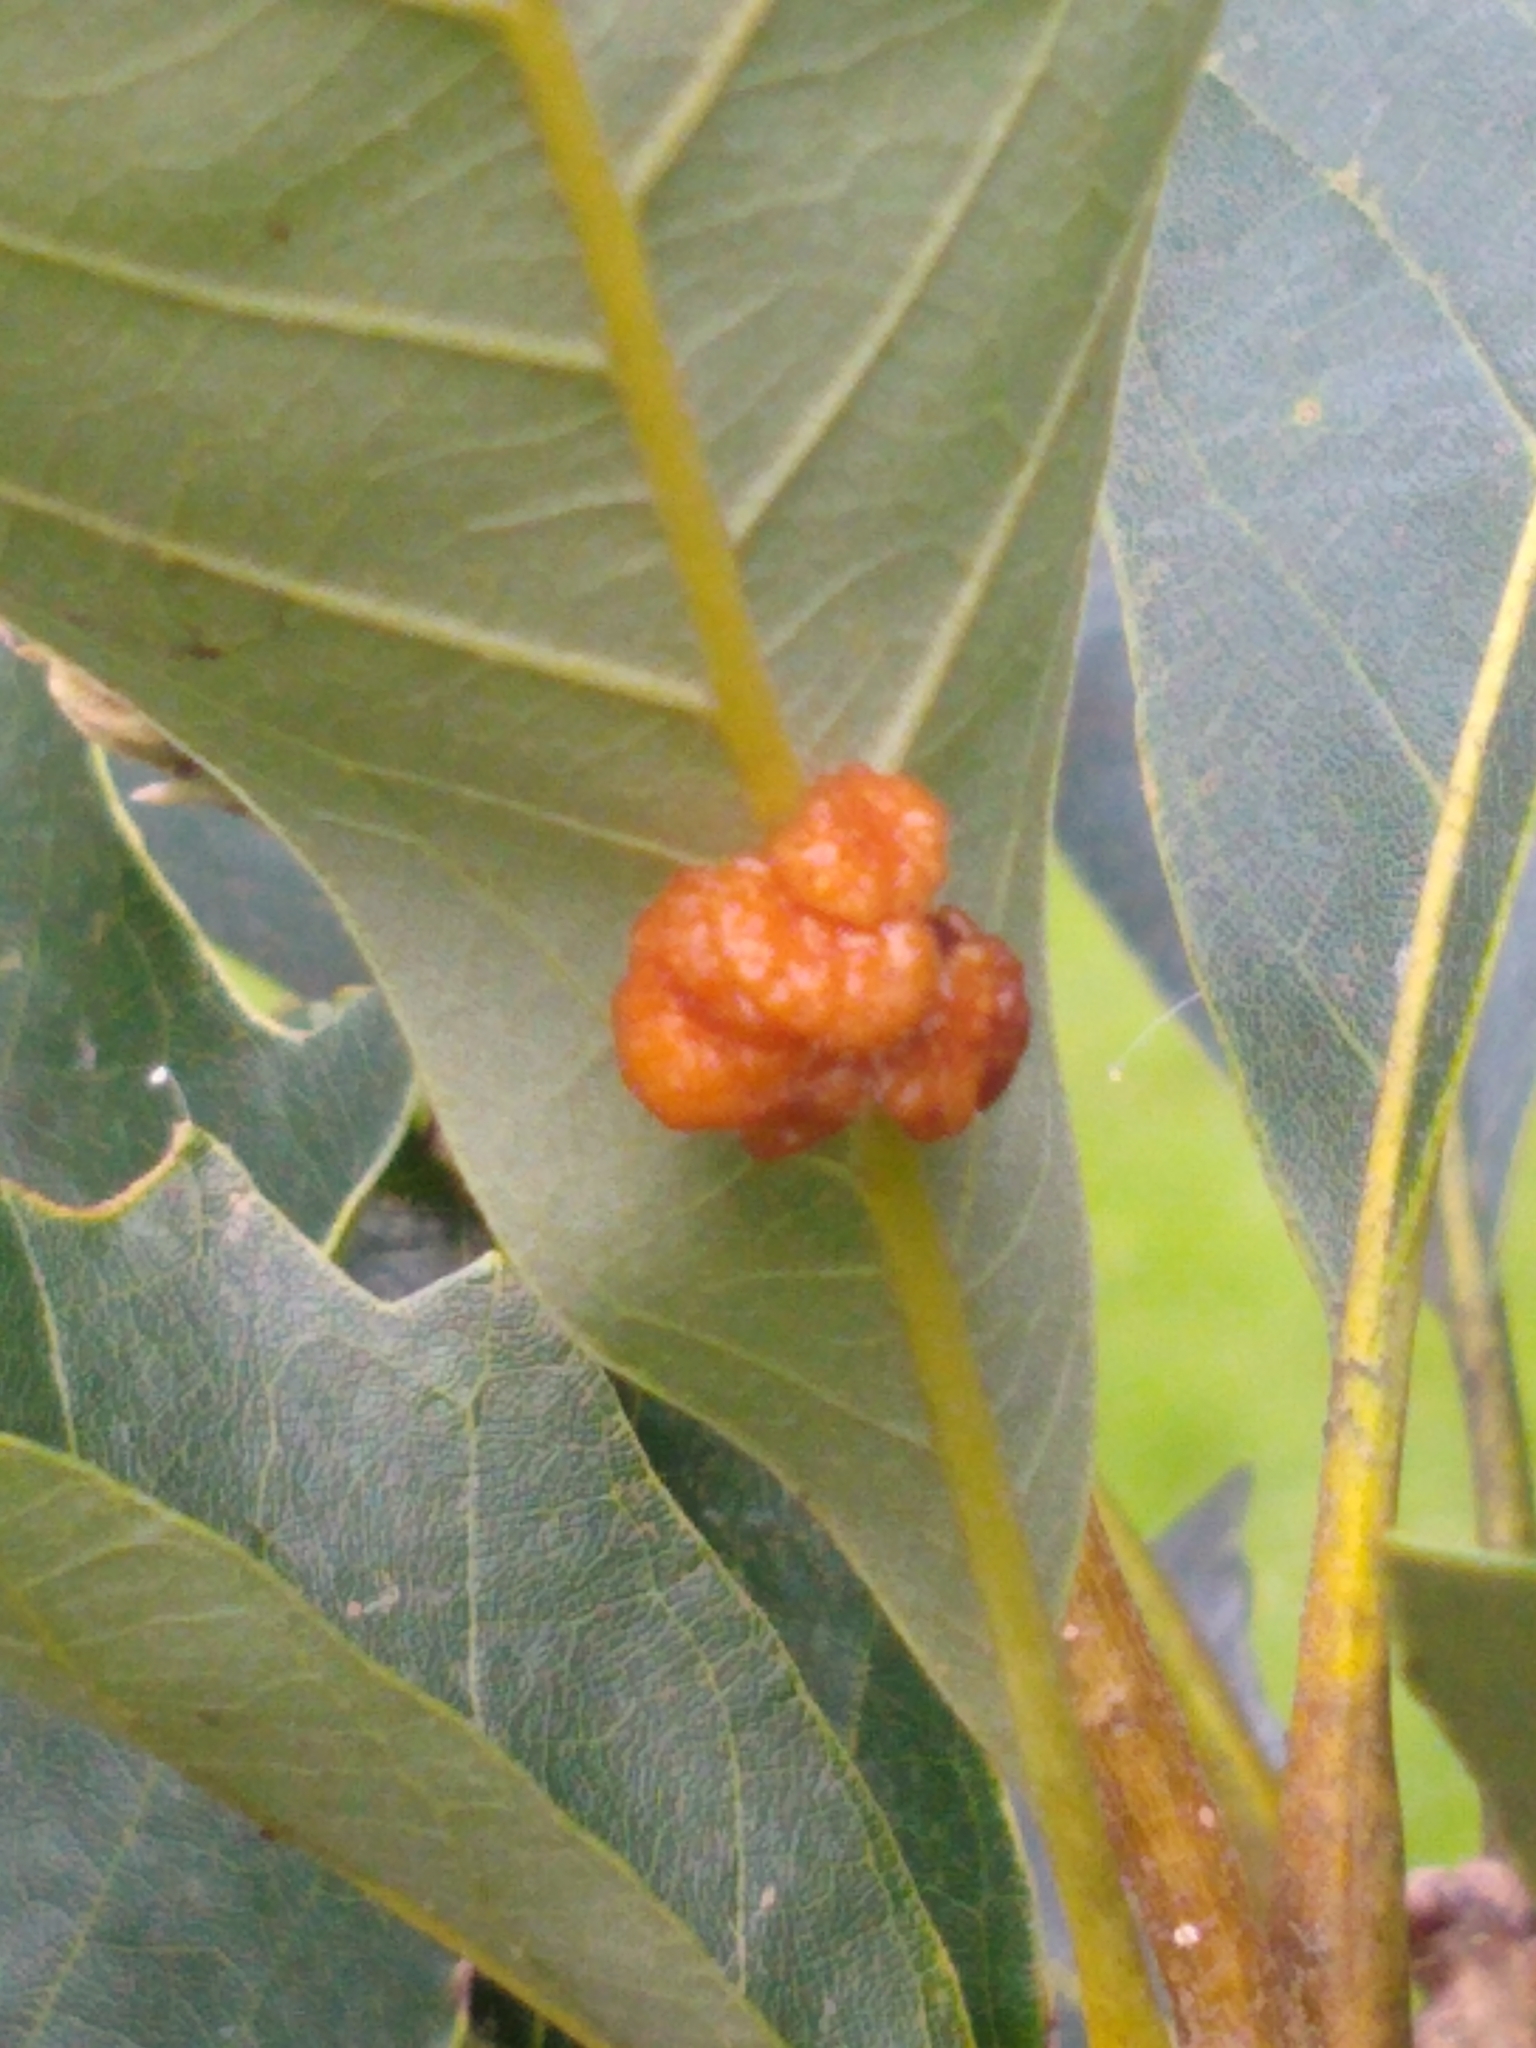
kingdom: Animalia
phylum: Arthropoda
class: Insecta
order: Hymenoptera
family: Cynipidae
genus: Andricus
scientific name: Andricus
